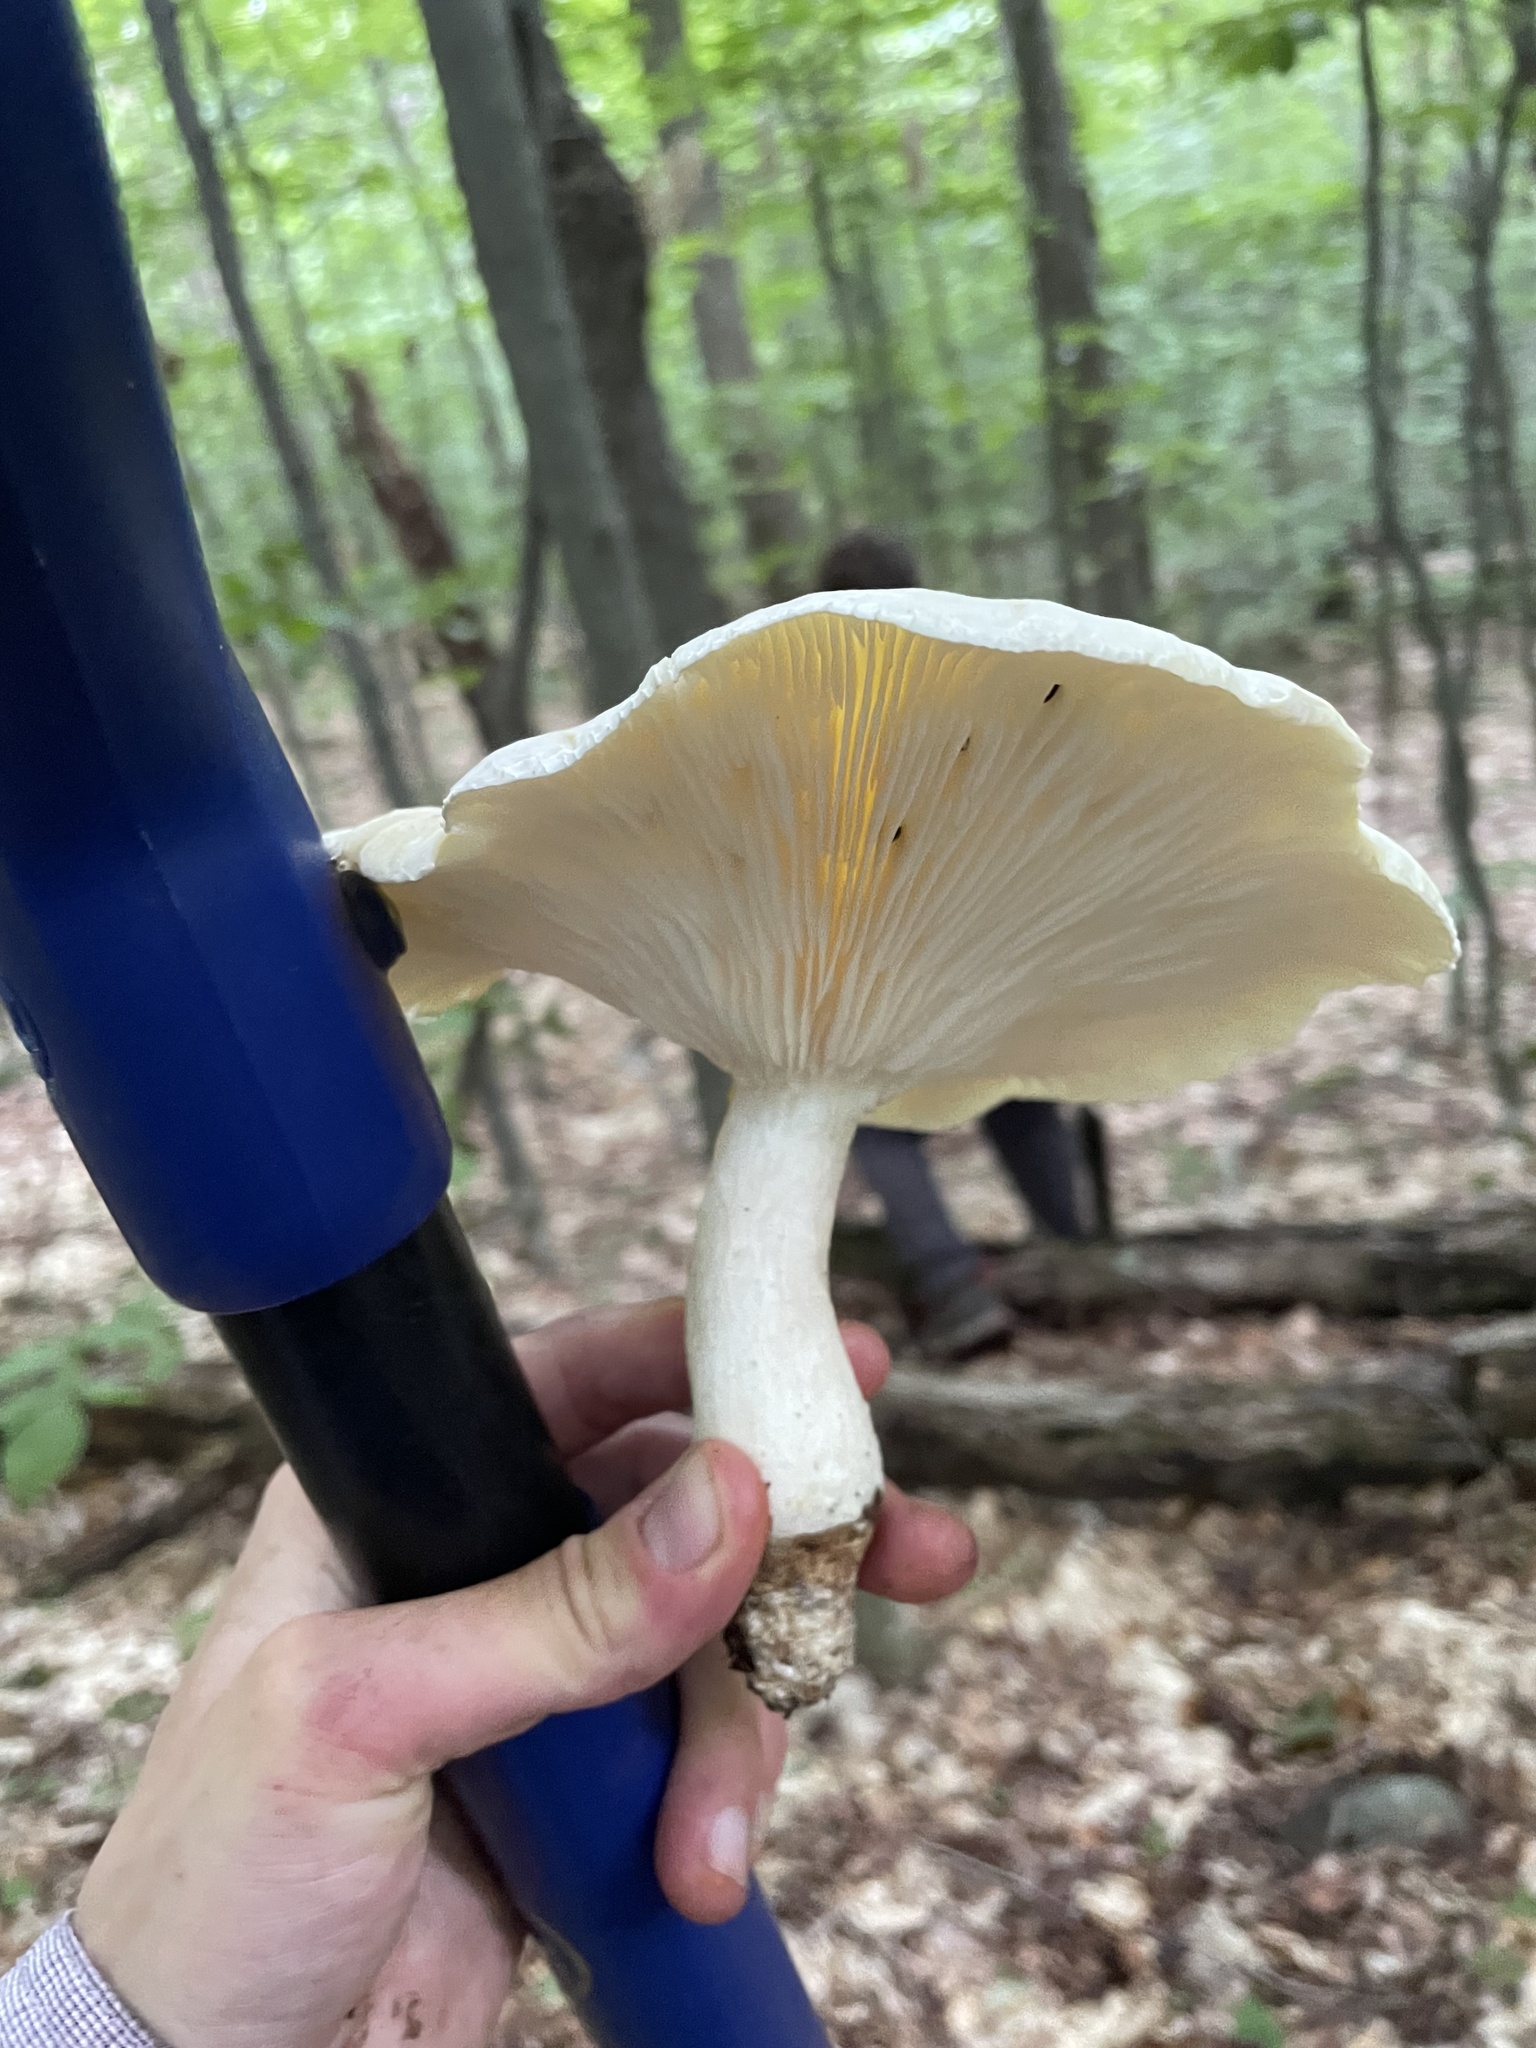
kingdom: Fungi
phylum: Basidiomycota
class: Agaricomycetes
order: Polyporales
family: Polyporaceae
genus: Lentinus
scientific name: Lentinus levis
